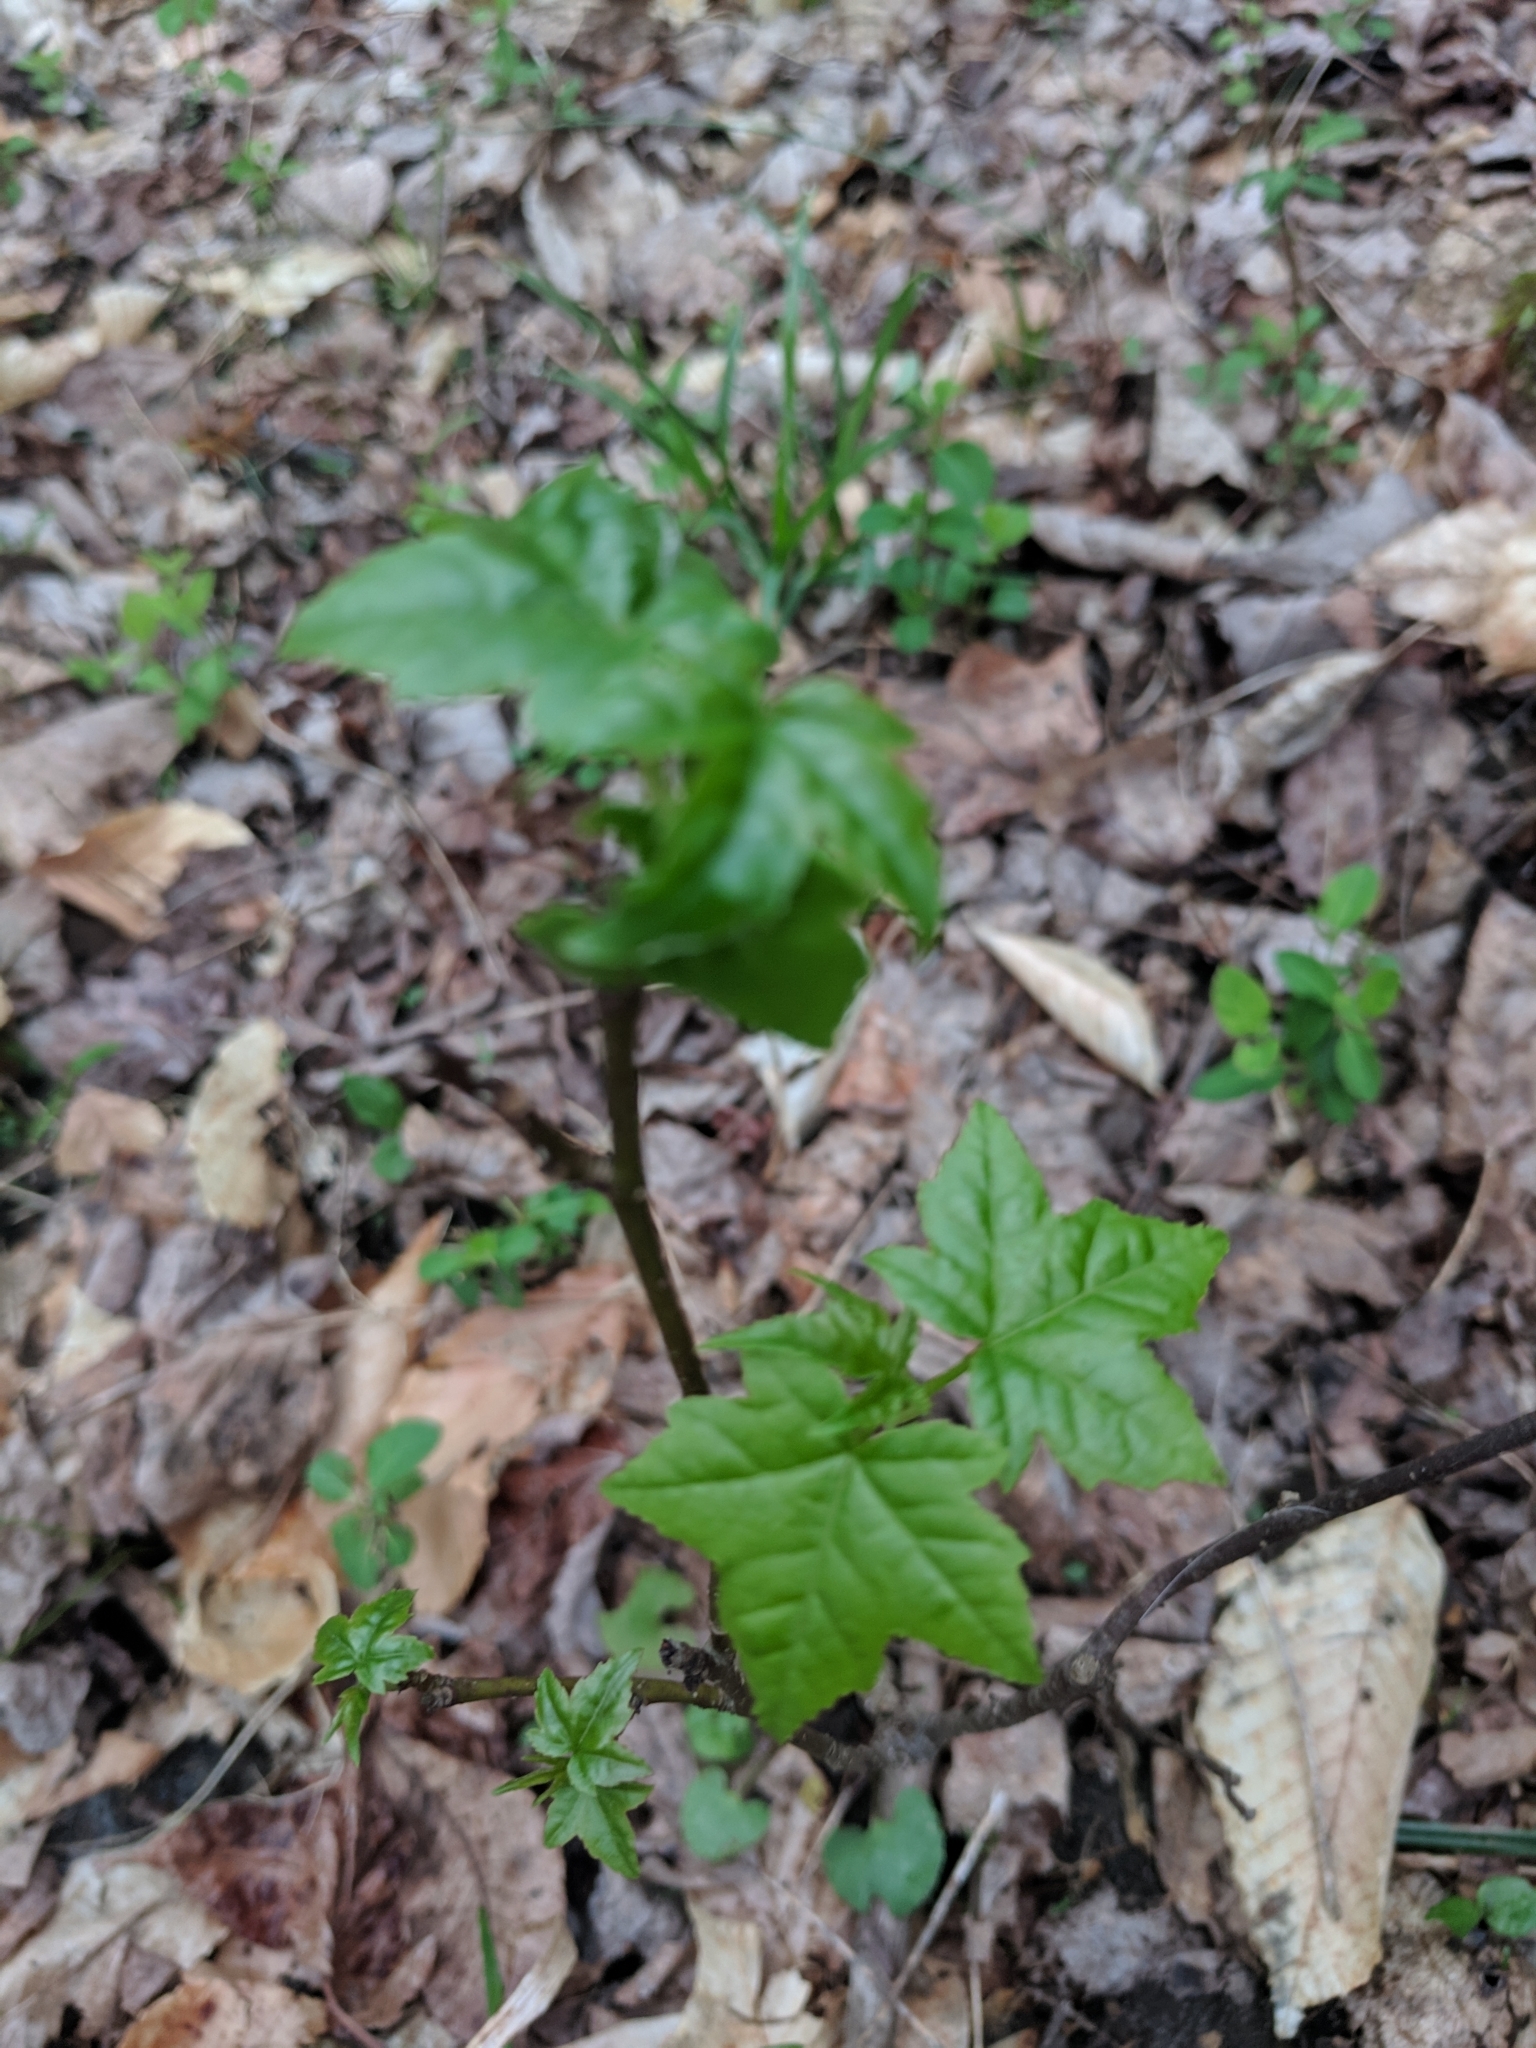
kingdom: Plantae
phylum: Tracheophyta
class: Magnoliopsida
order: Saxifragales
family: Altingiaceae
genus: Liquidambar
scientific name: Liquidambar styraciflua
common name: Sweet gum
